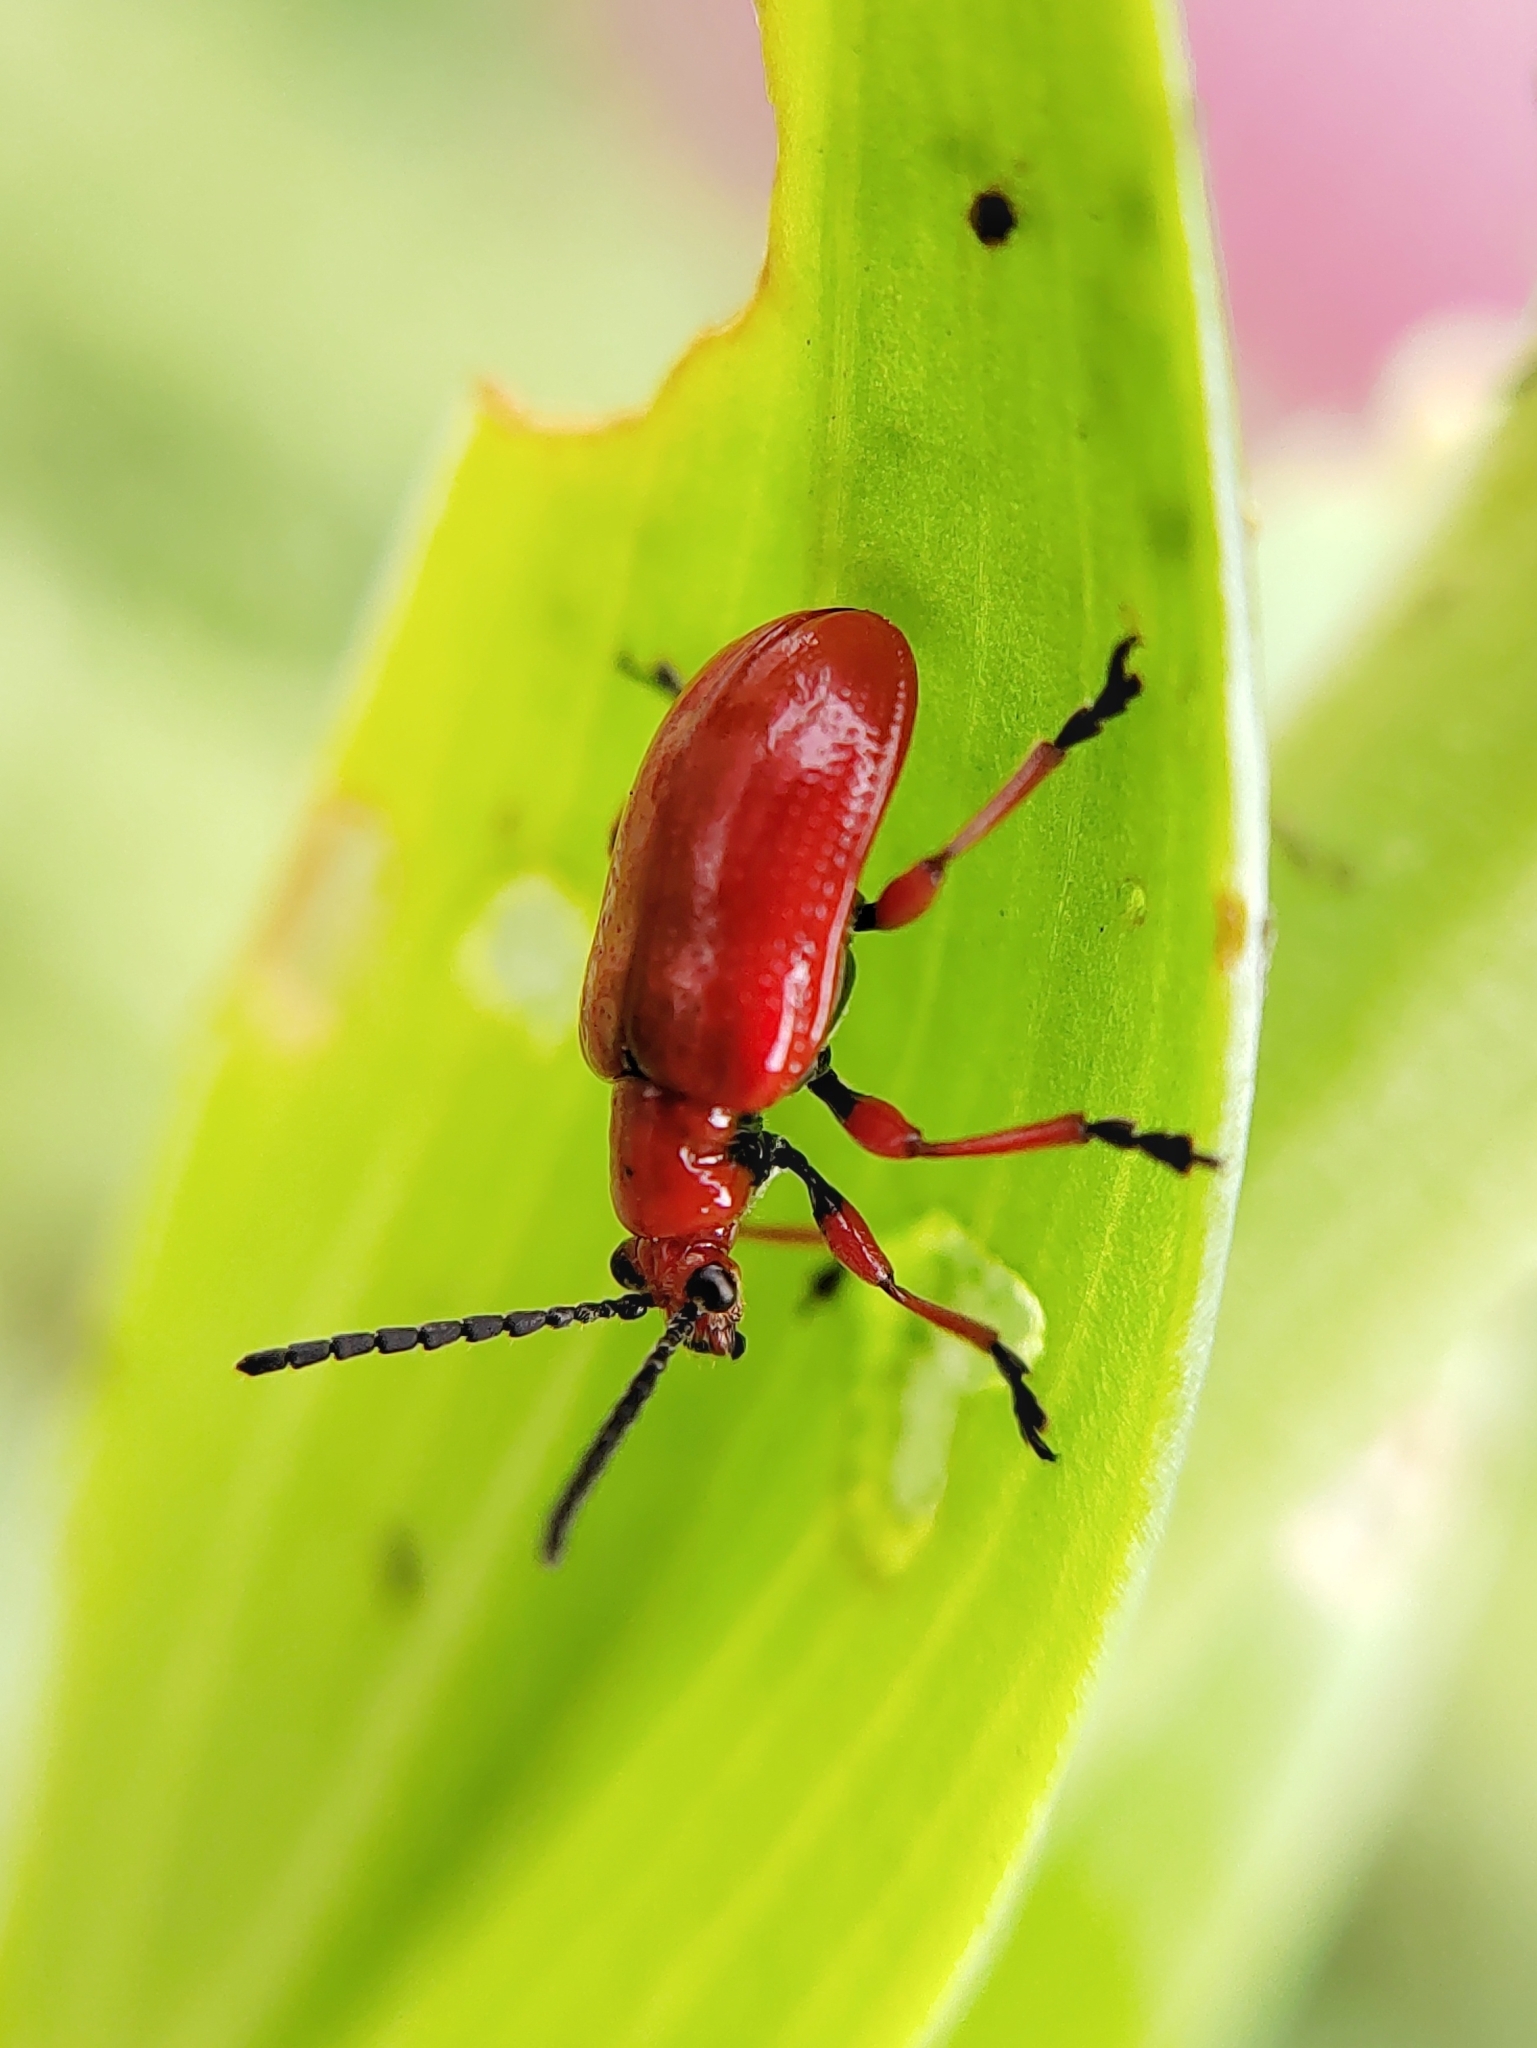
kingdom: Animalia
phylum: Arthropoda
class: Insecta
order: Coleoptera
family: Chrysomelidae
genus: Lilioceris
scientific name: Lilioceris faldermanni
